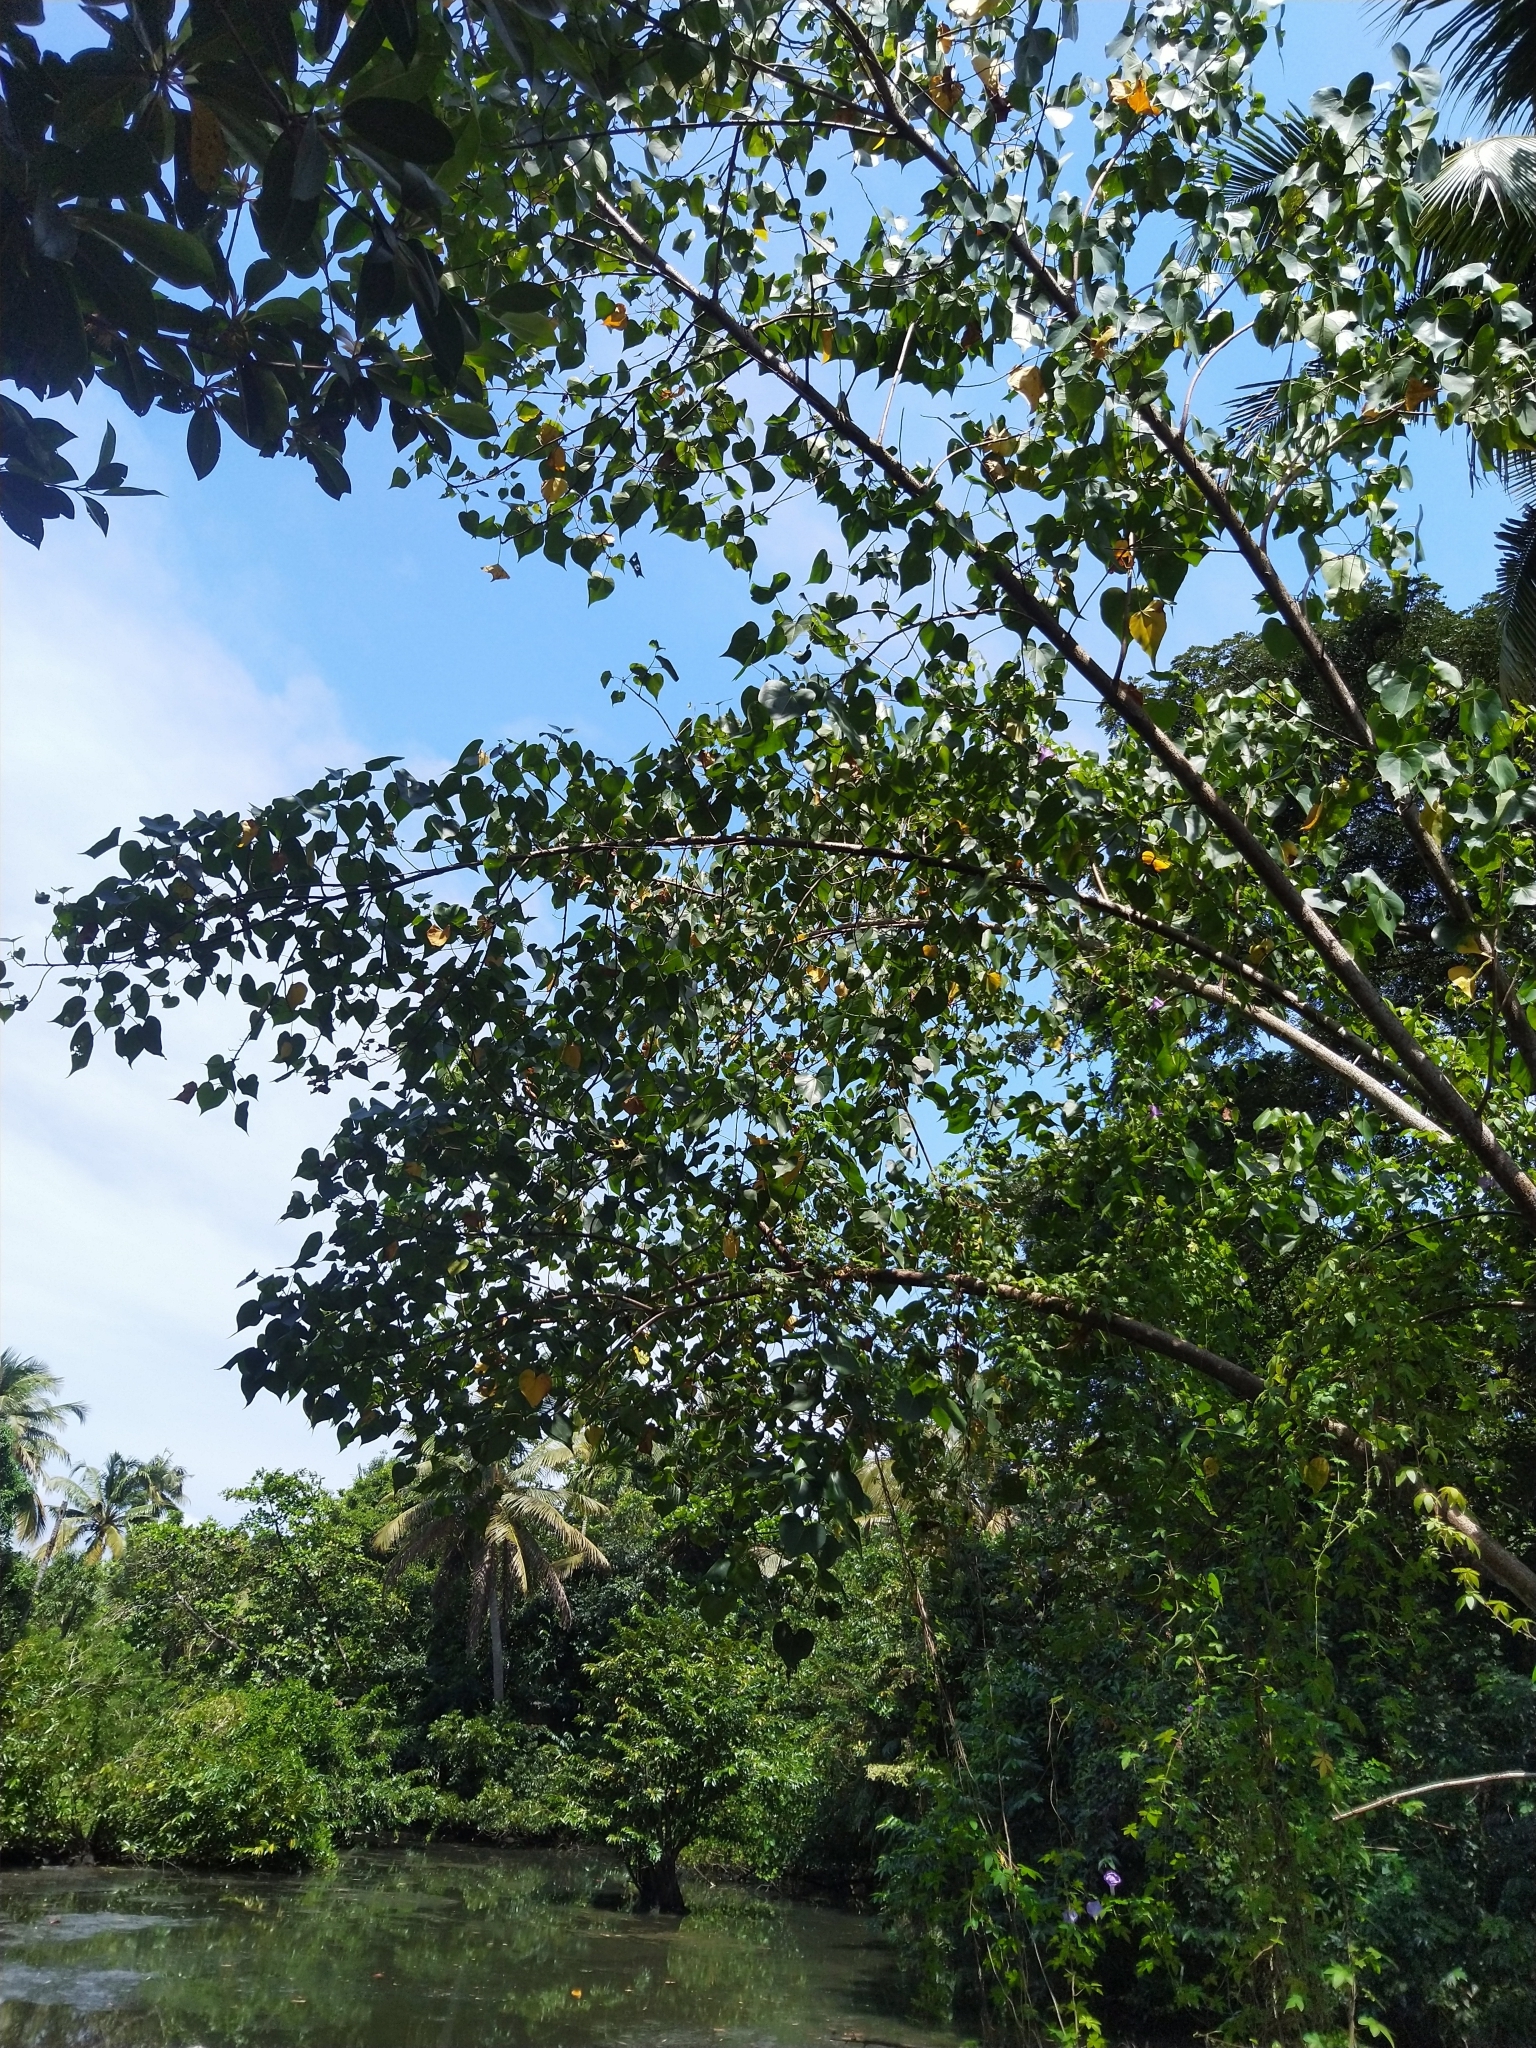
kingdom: Plantae
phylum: Tracheophyta
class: Magnoliopsida
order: Malvales
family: Malvaceae
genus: Thespesia
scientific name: Thespesia populnea
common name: Seaside mahoe
